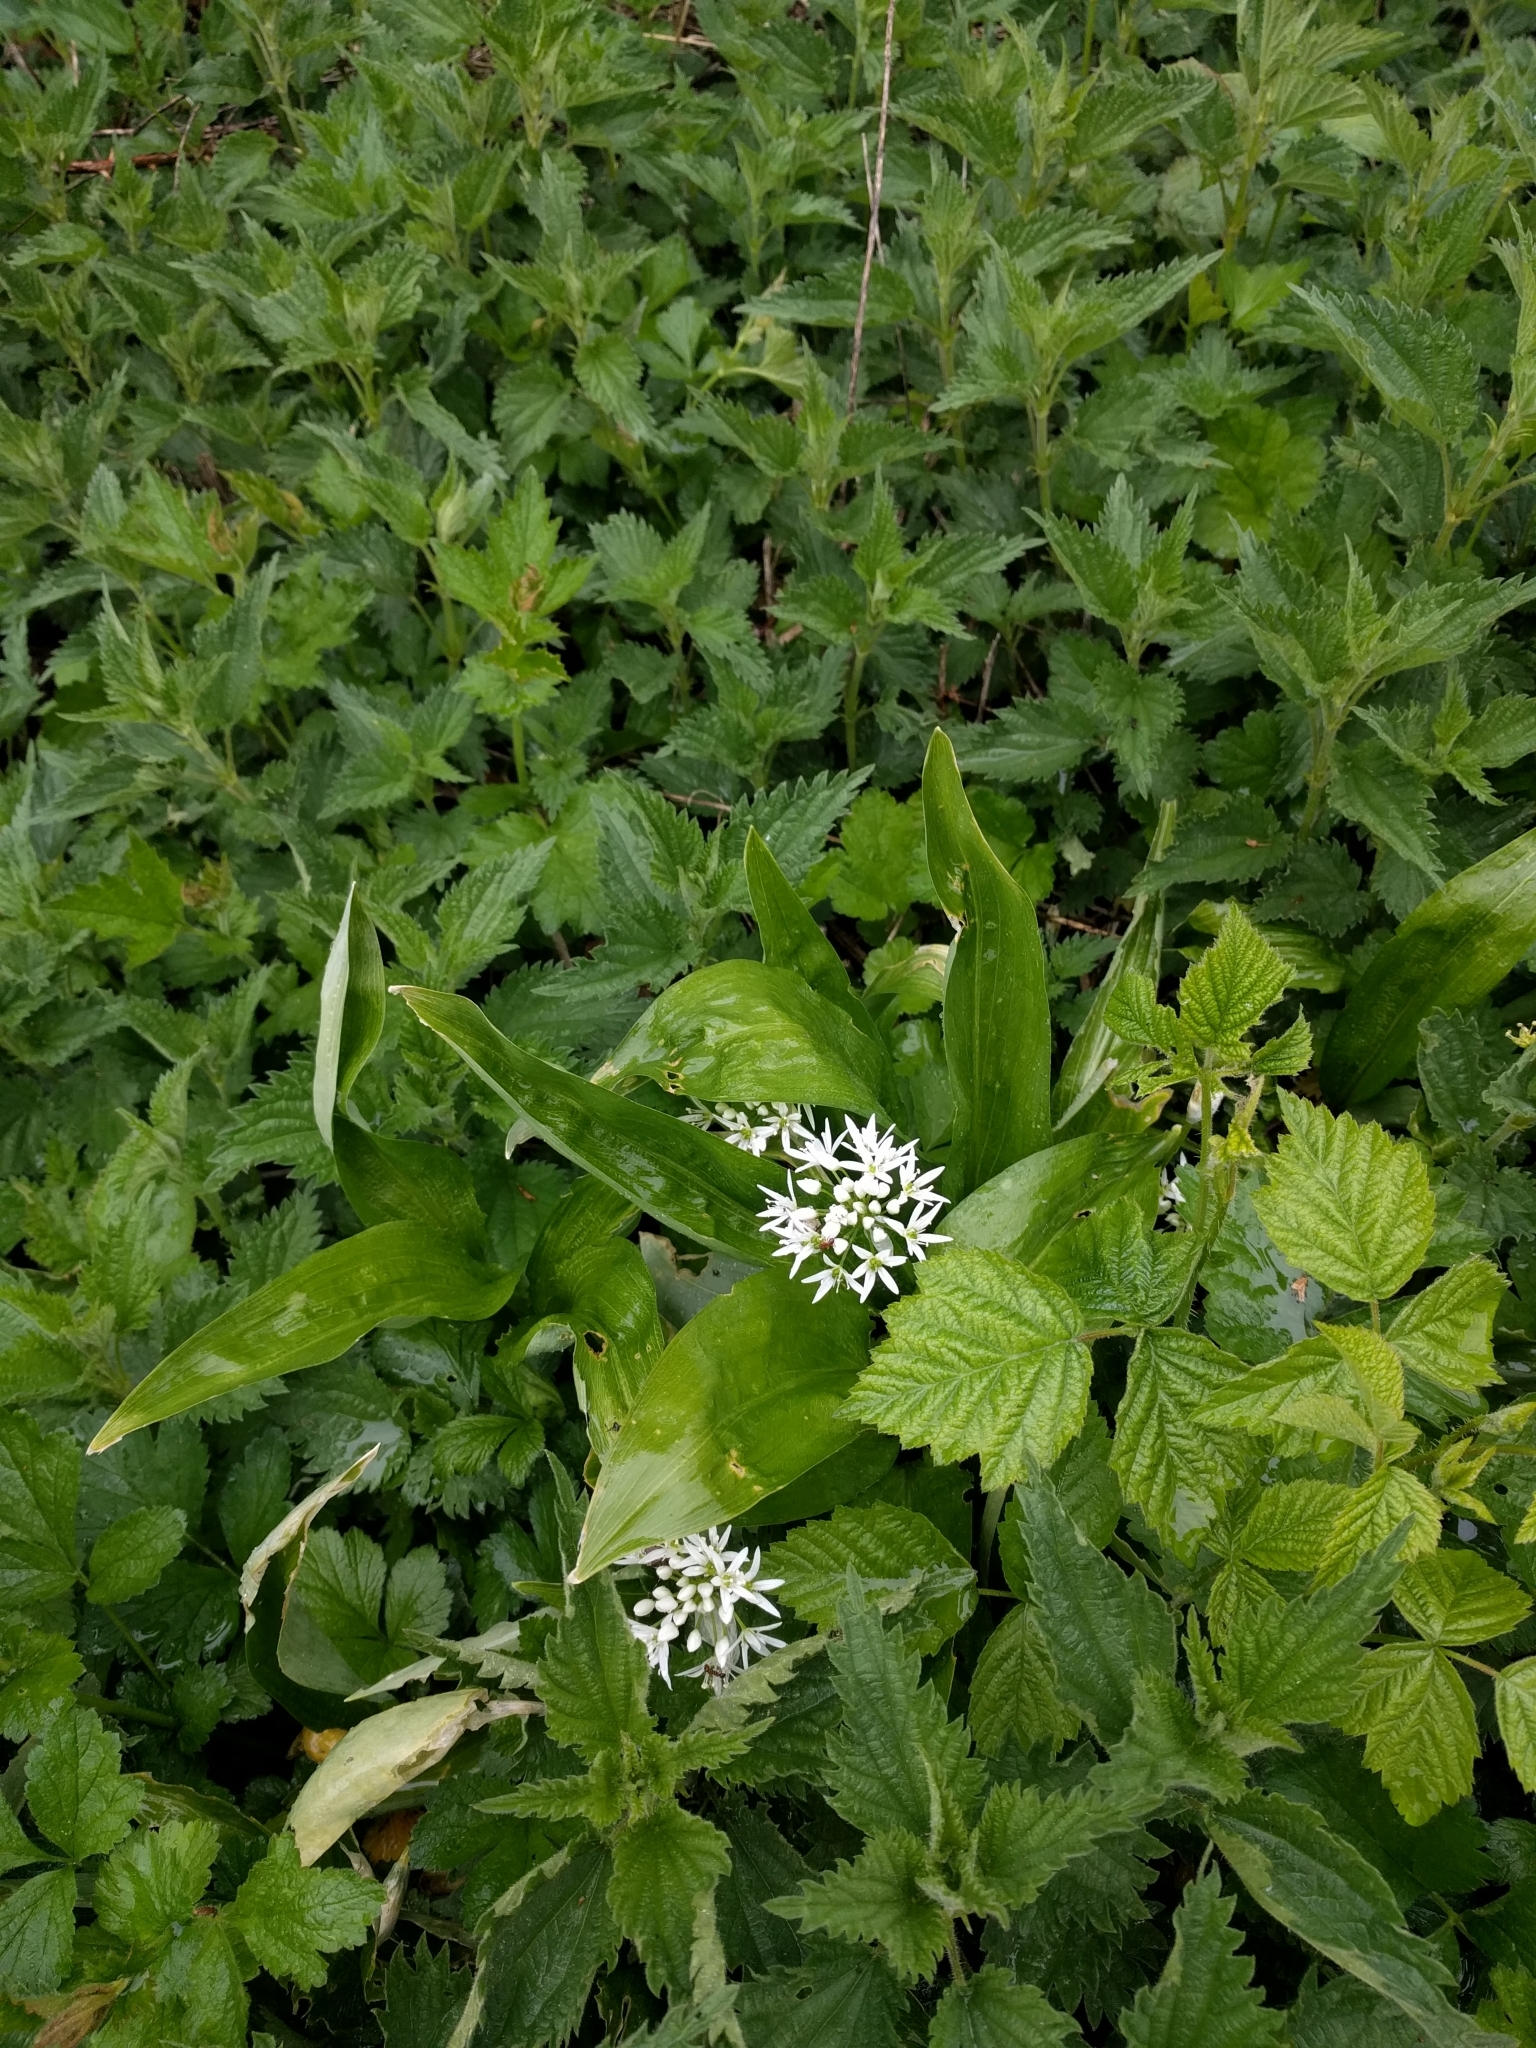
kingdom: Plantae
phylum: Tracheophyta
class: Liliopsida
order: Asparagales
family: Amaryllidaceae
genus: Allium
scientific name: Allium ursinum
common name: Ramsons
